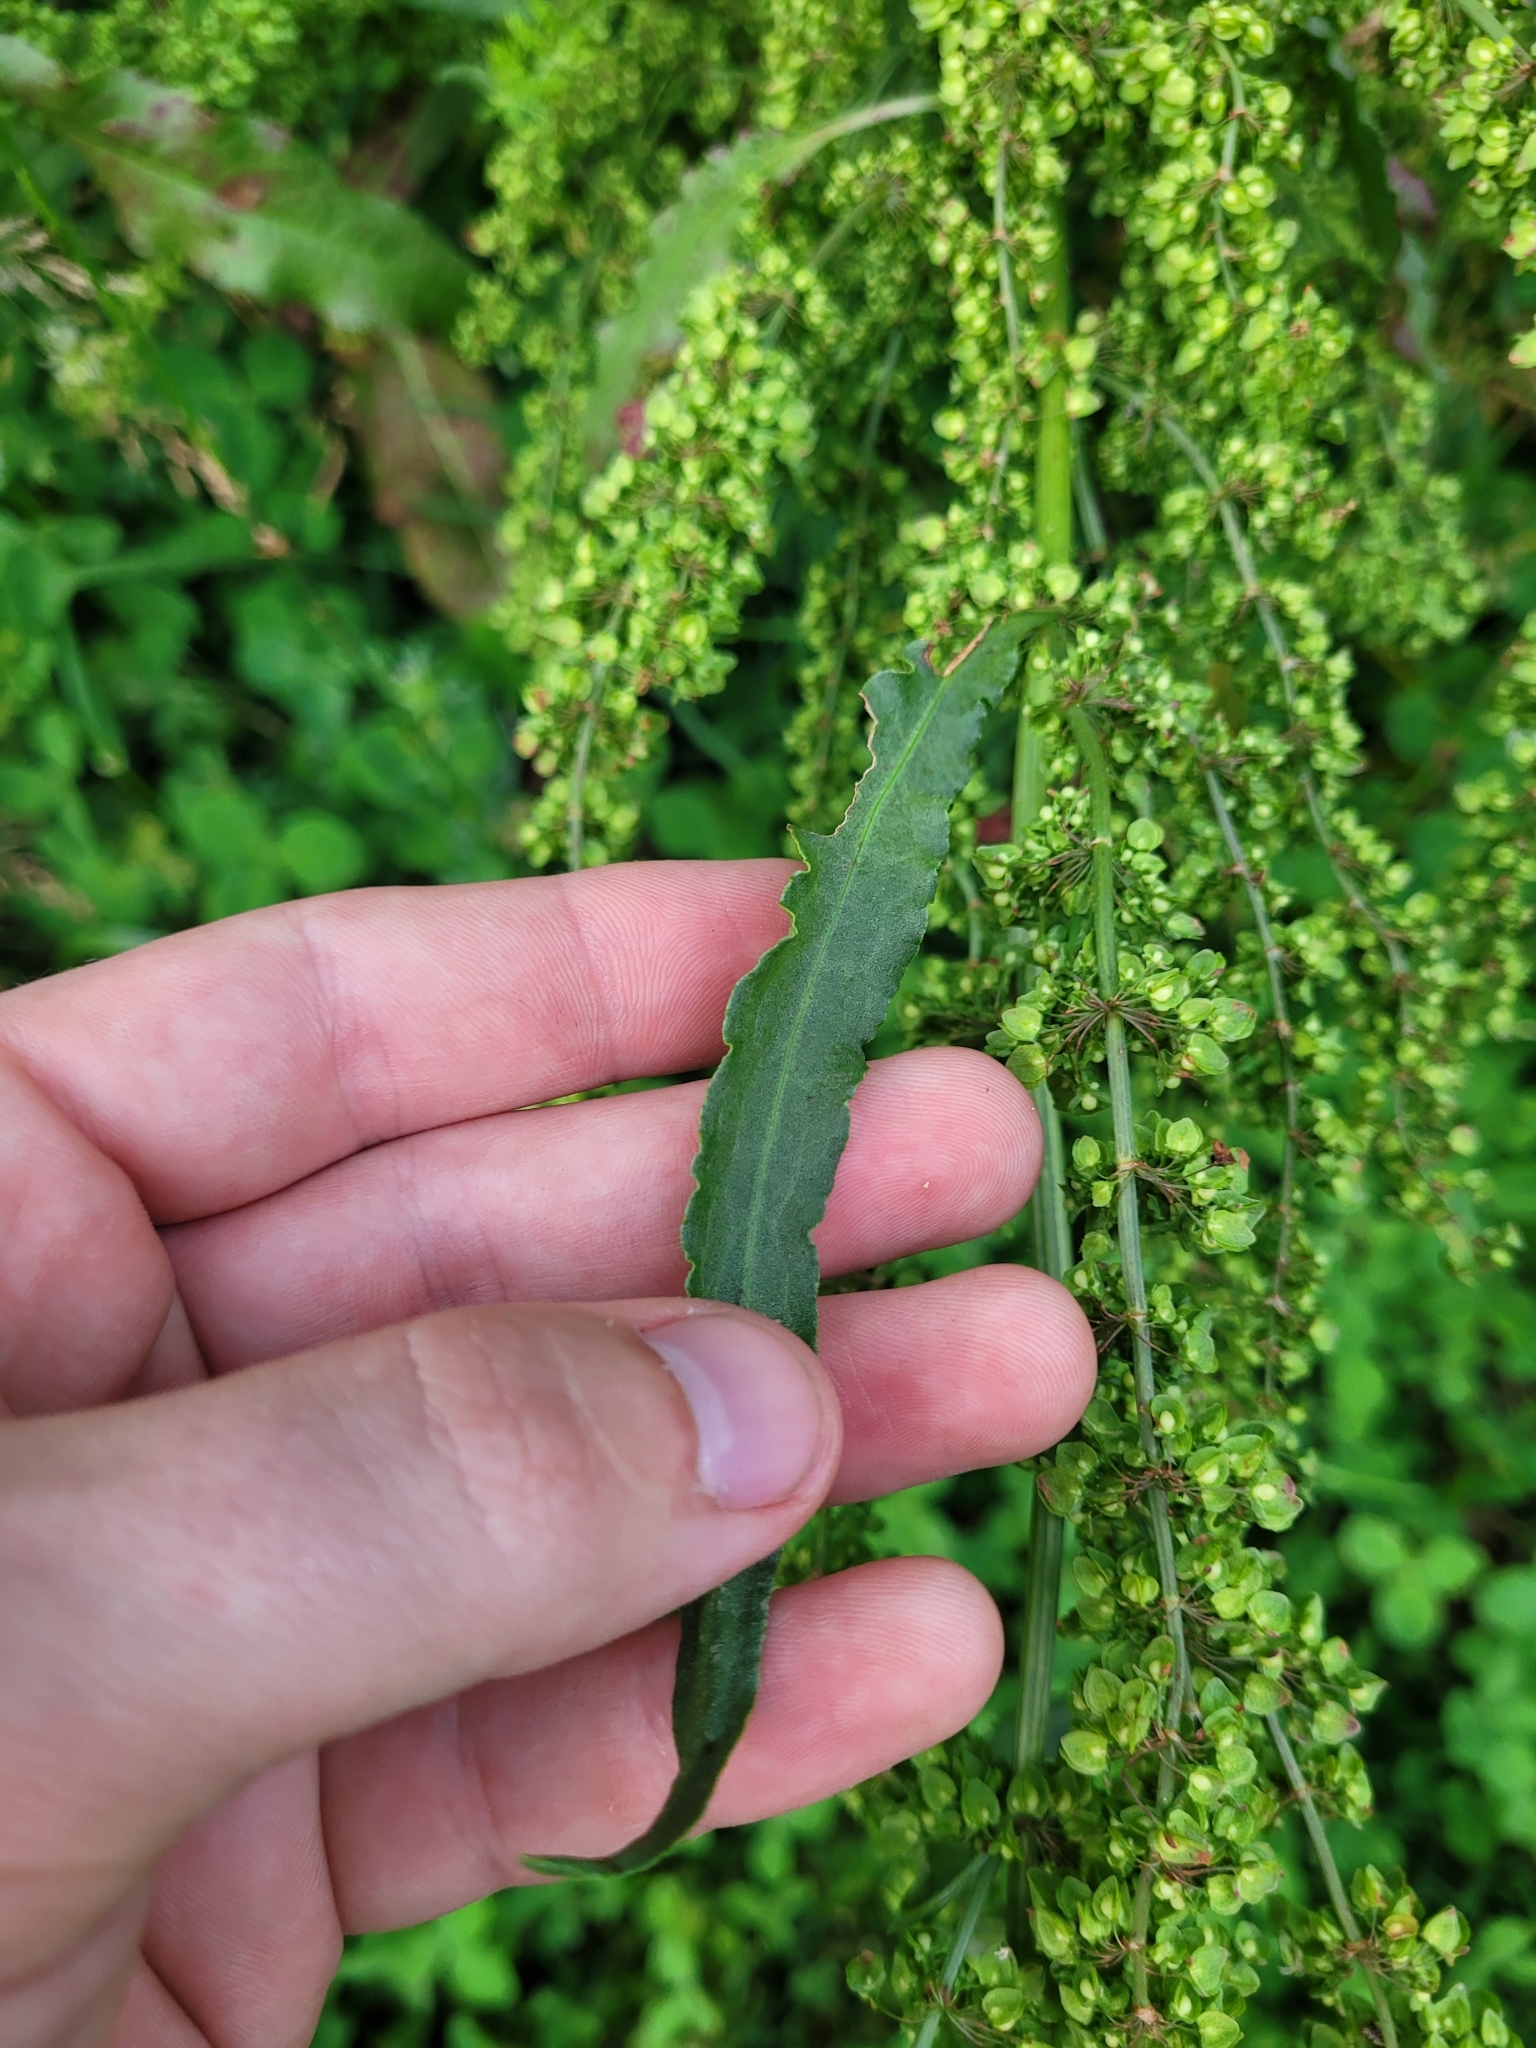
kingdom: Plantae
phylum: Tracheophyta
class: Magnoliopsida
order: Caryophyllales
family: Polygonaceae
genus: Rumex
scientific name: Rumex crispus
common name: Curled dock
